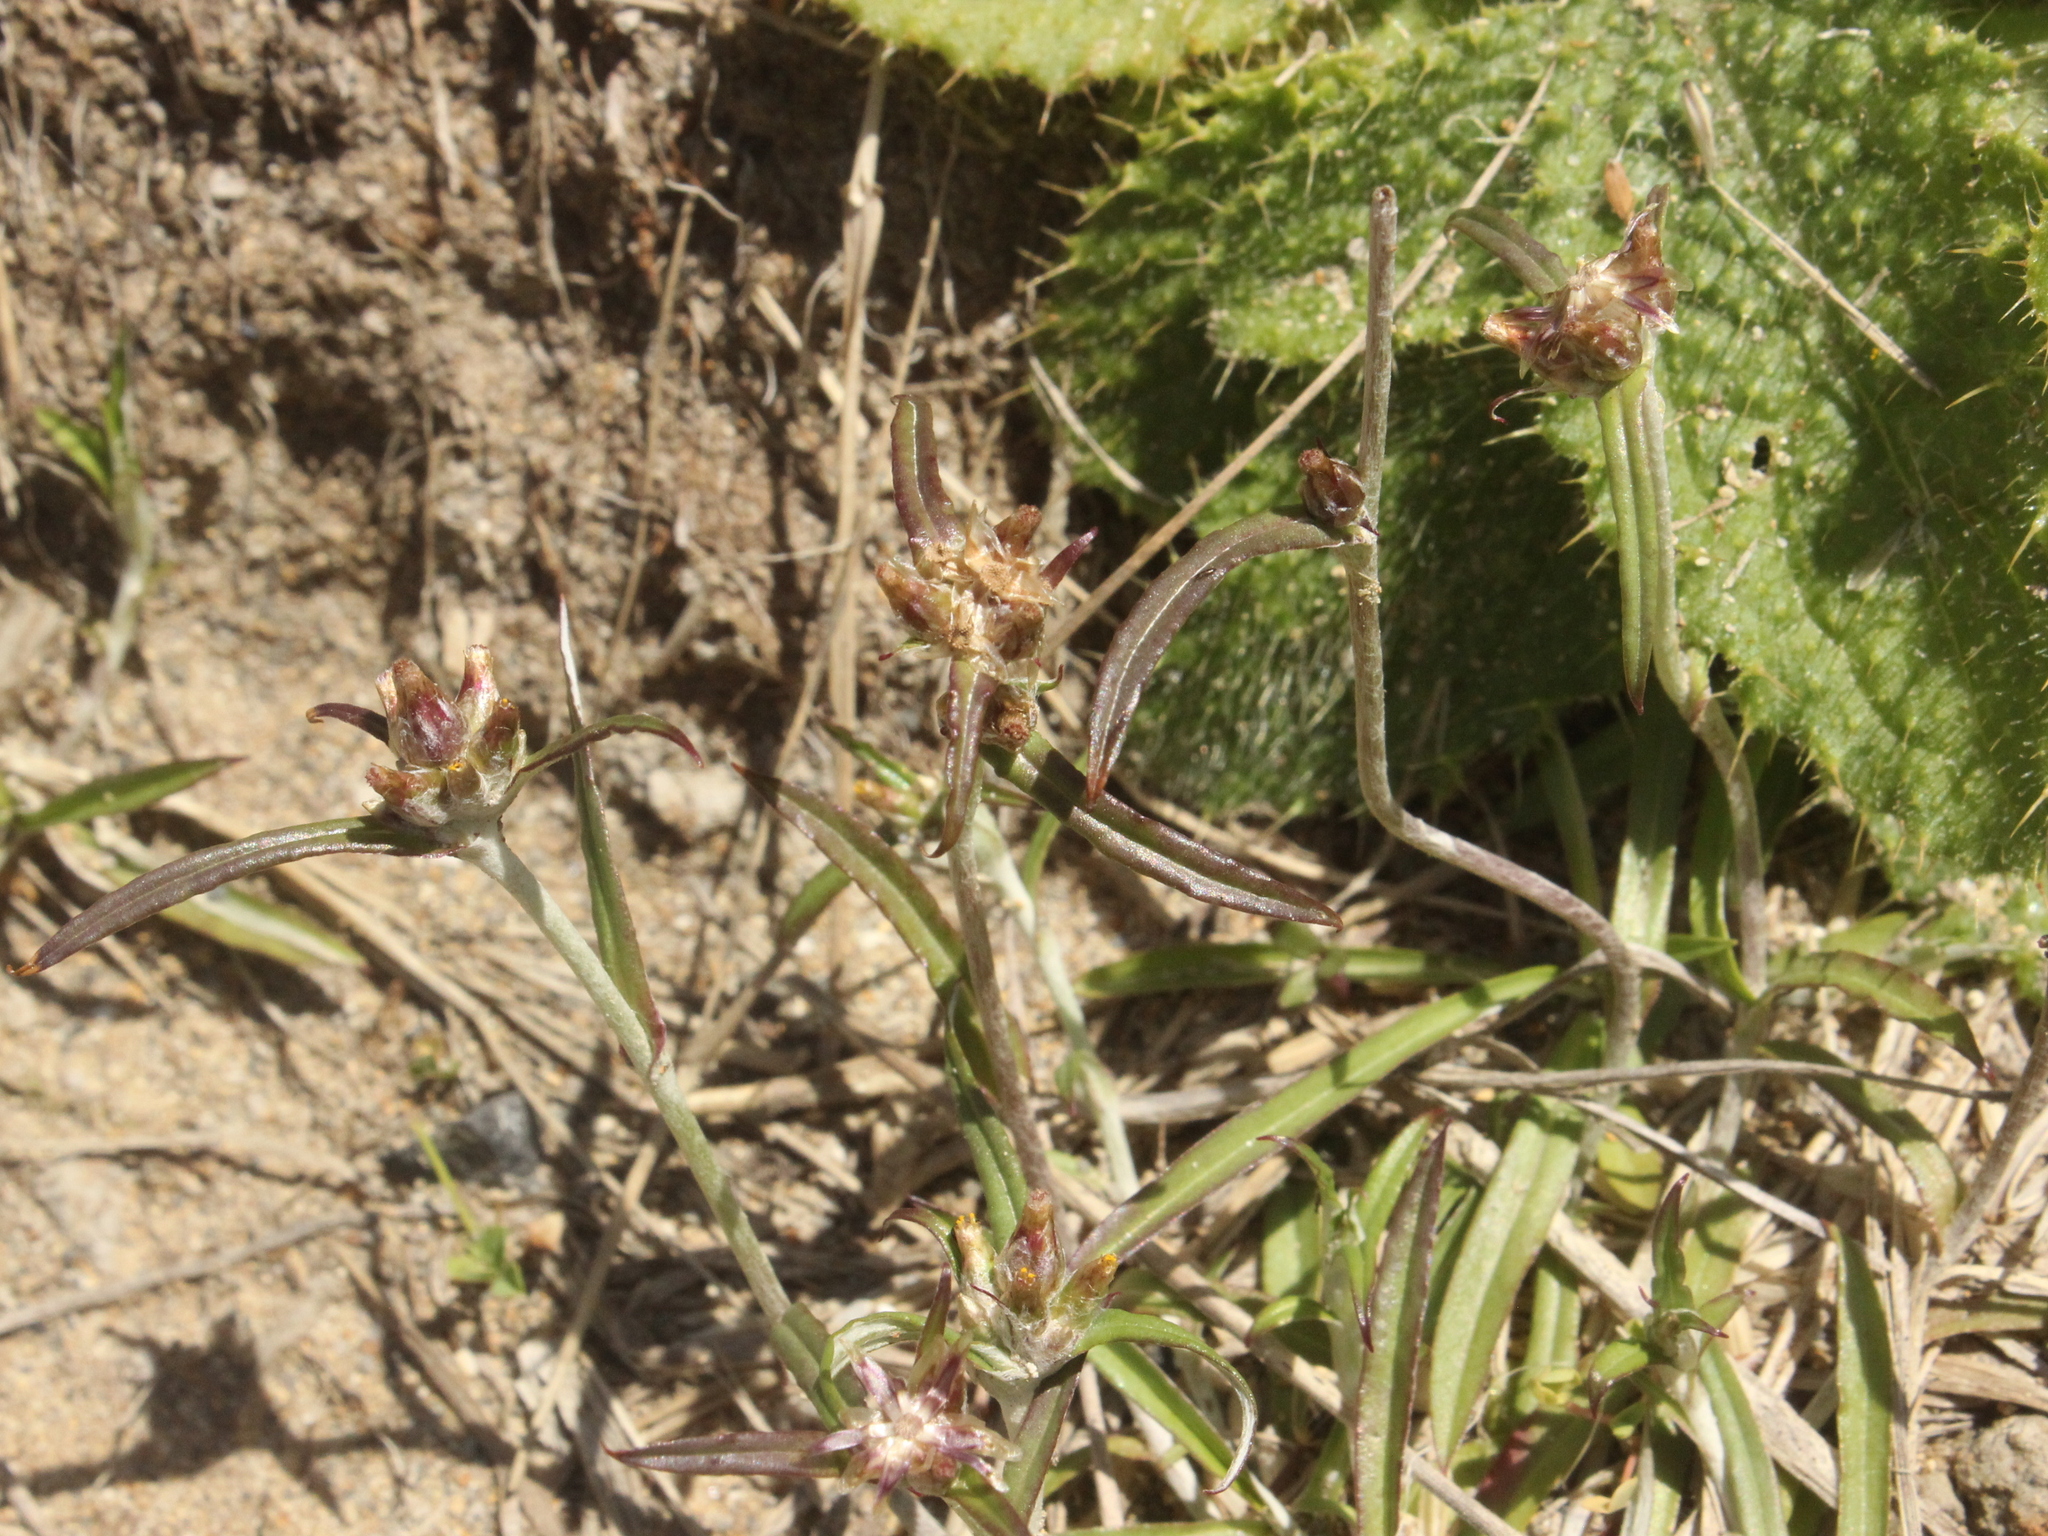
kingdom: Plantae
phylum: Tracheophyta
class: Magnoliopsida
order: Asterales
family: Asteraceae
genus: Euchiton
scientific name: Euchiton involucratus
